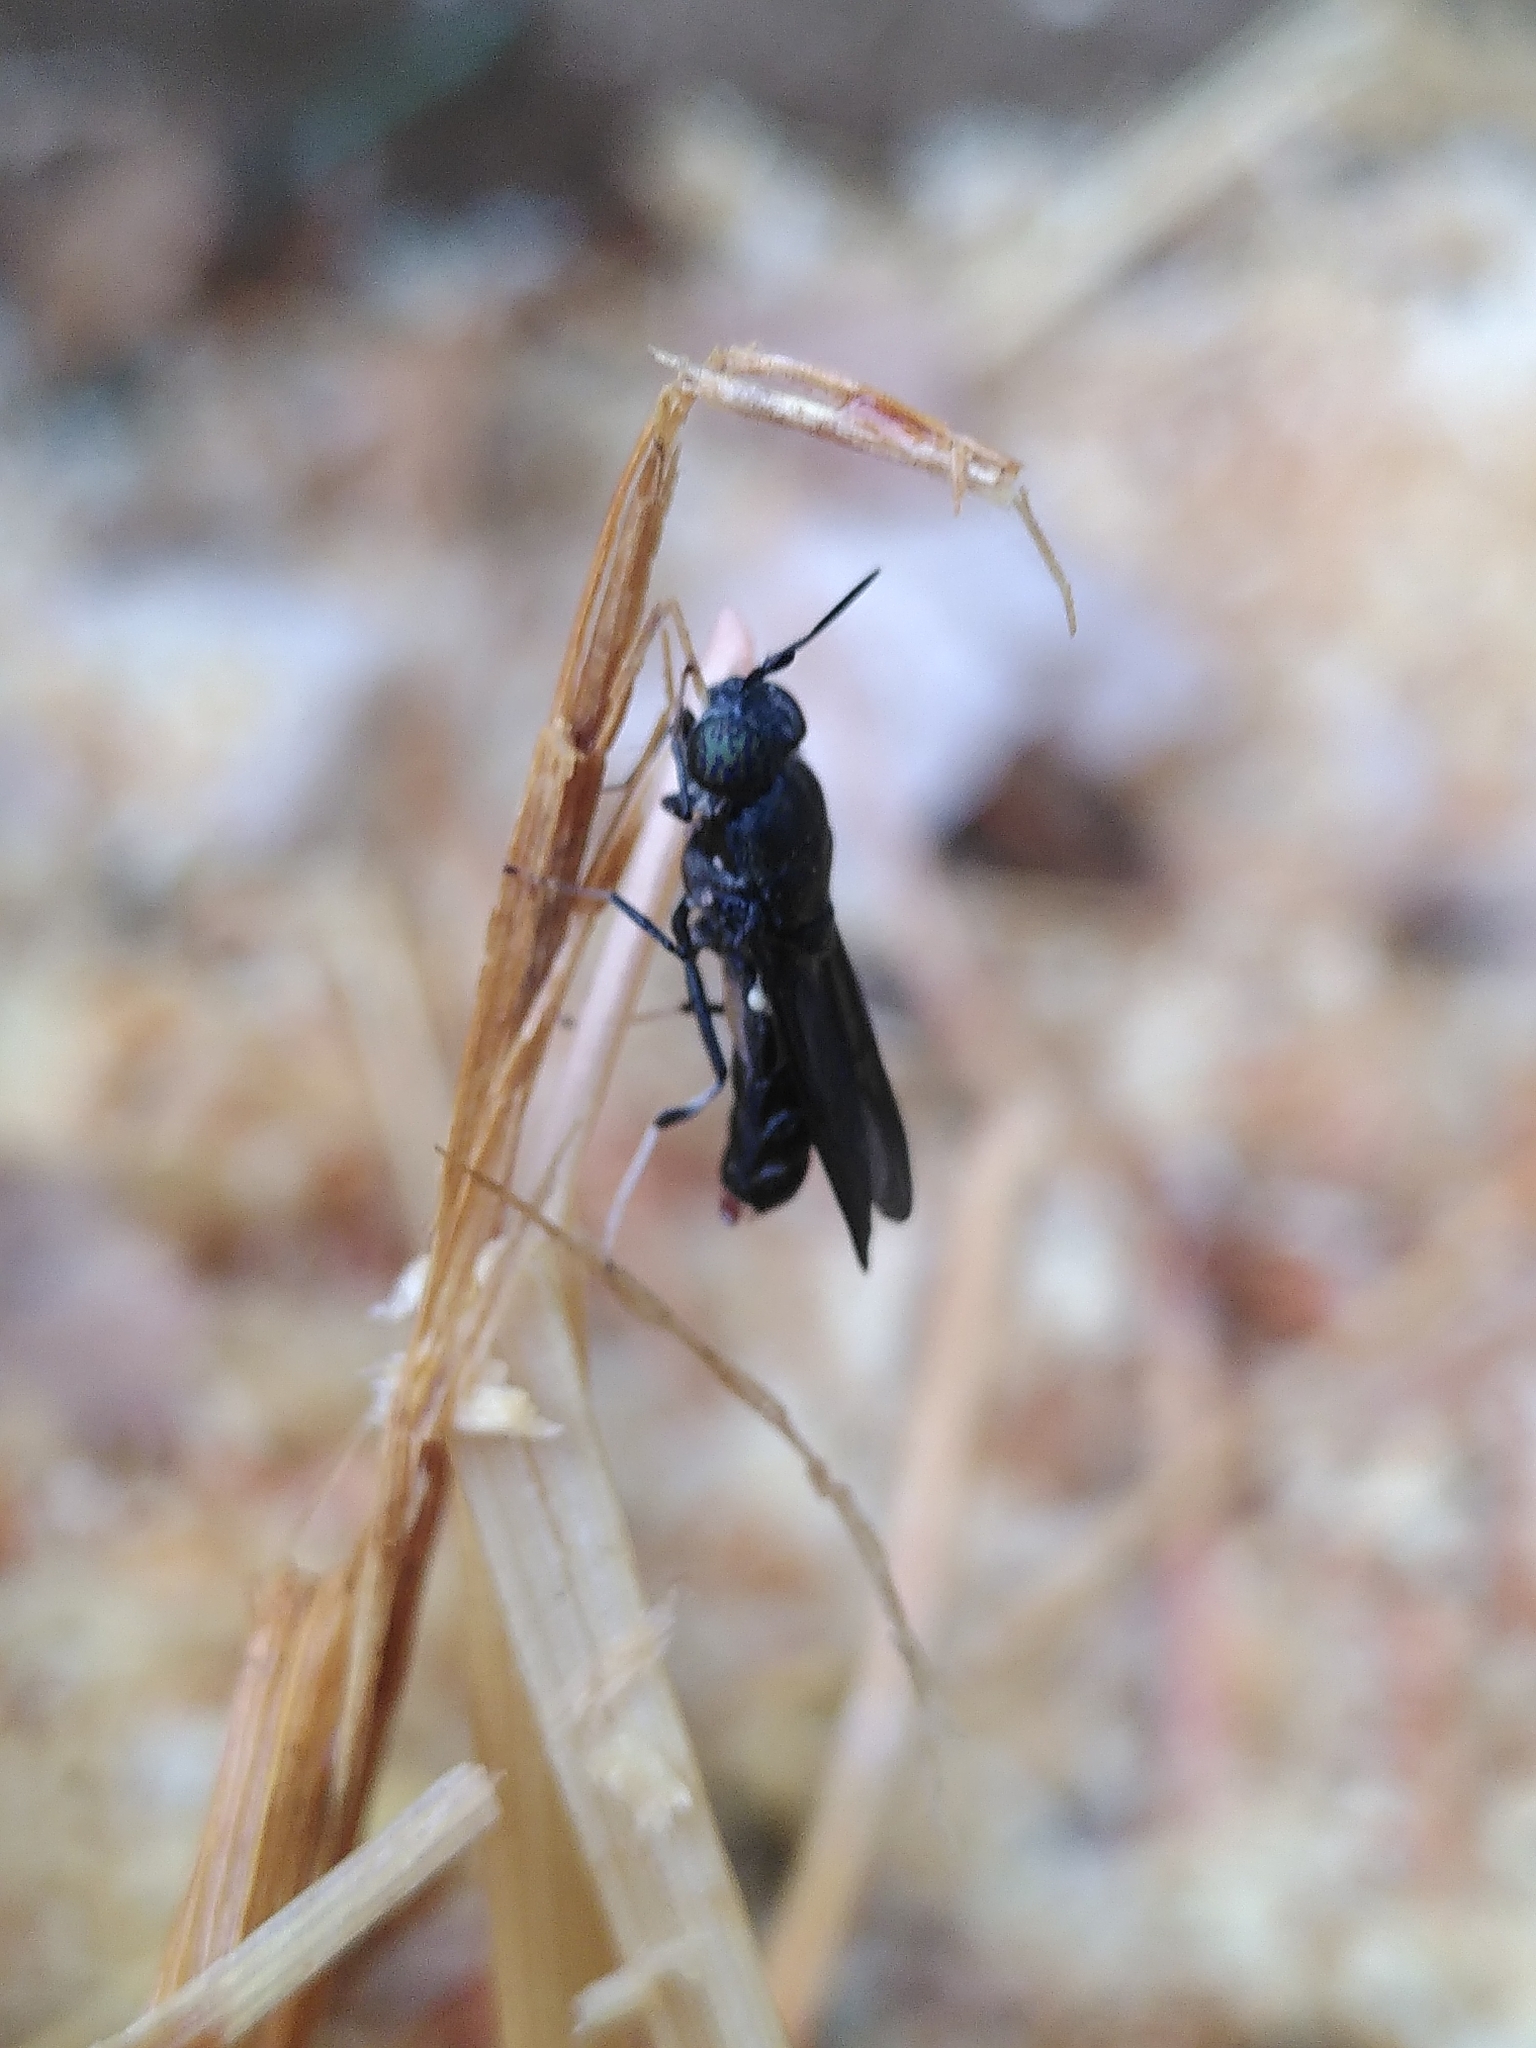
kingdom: Animalia
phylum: Arthropoda
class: Insecta
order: Diptera
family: Stratiomyidae
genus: Hermetia
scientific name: Hermetia illucens
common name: Black soldier fly
